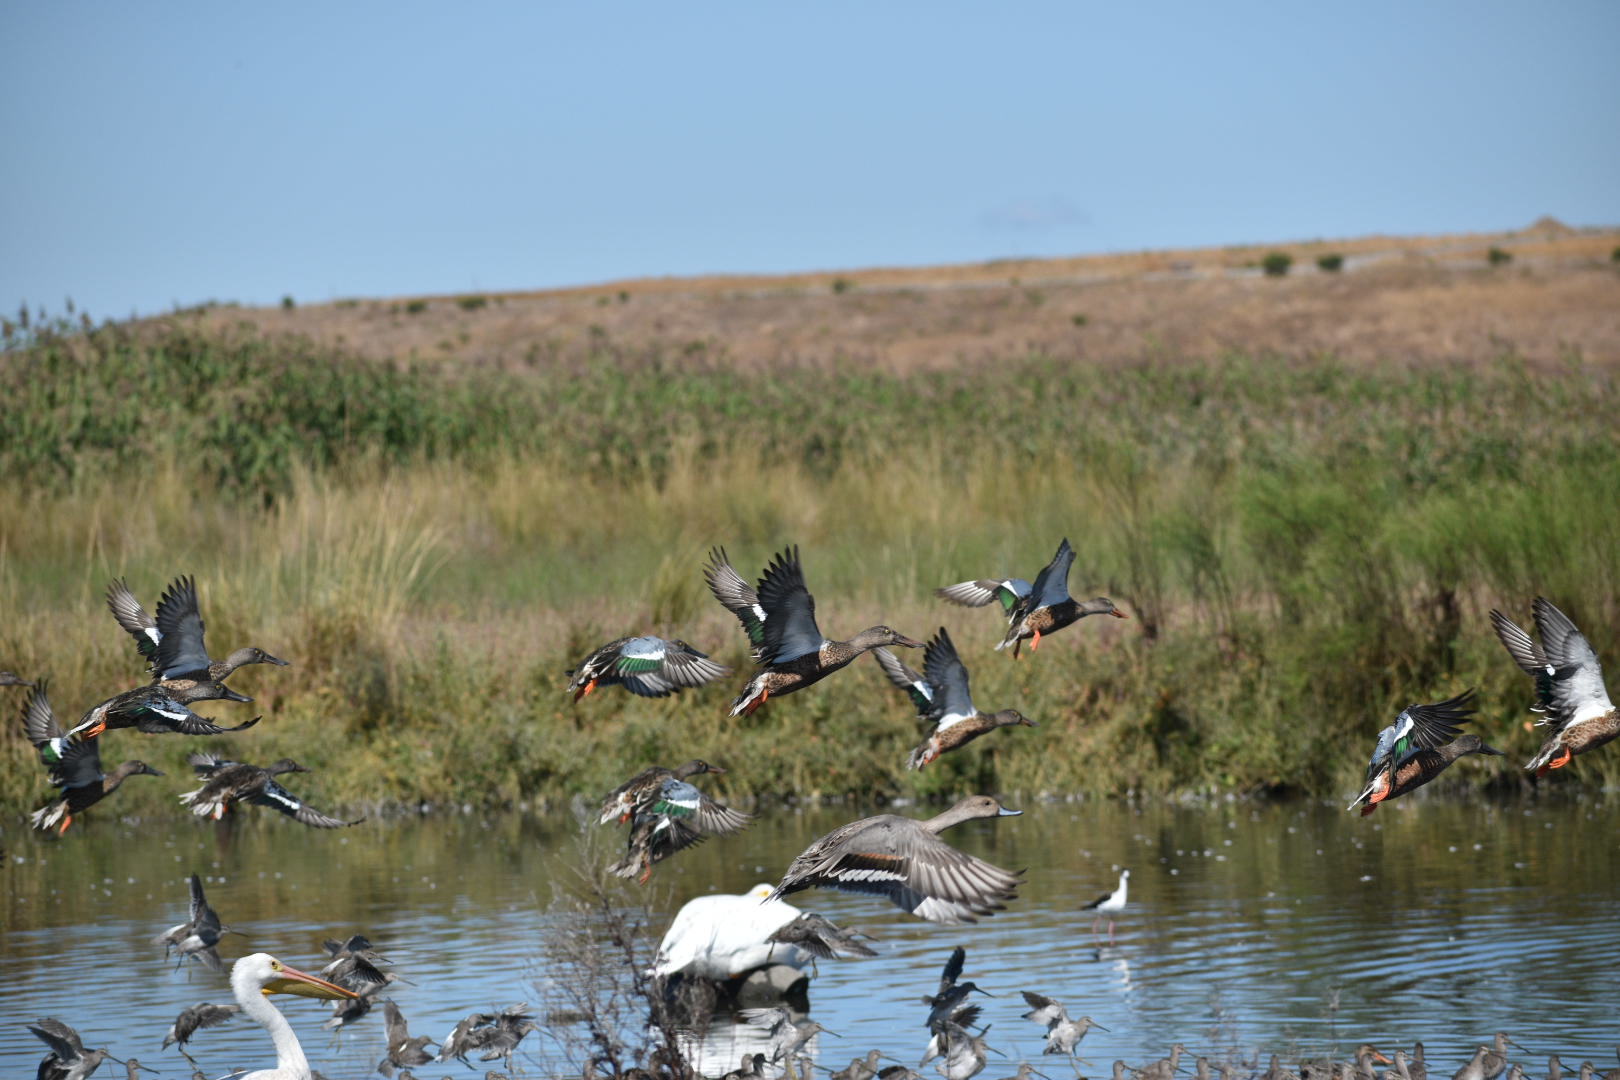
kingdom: Animalia
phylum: Chordata
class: Aves
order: Anseriformes
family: Anatidae
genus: Spatula
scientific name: Spatula clypeata
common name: Northern shoveler
